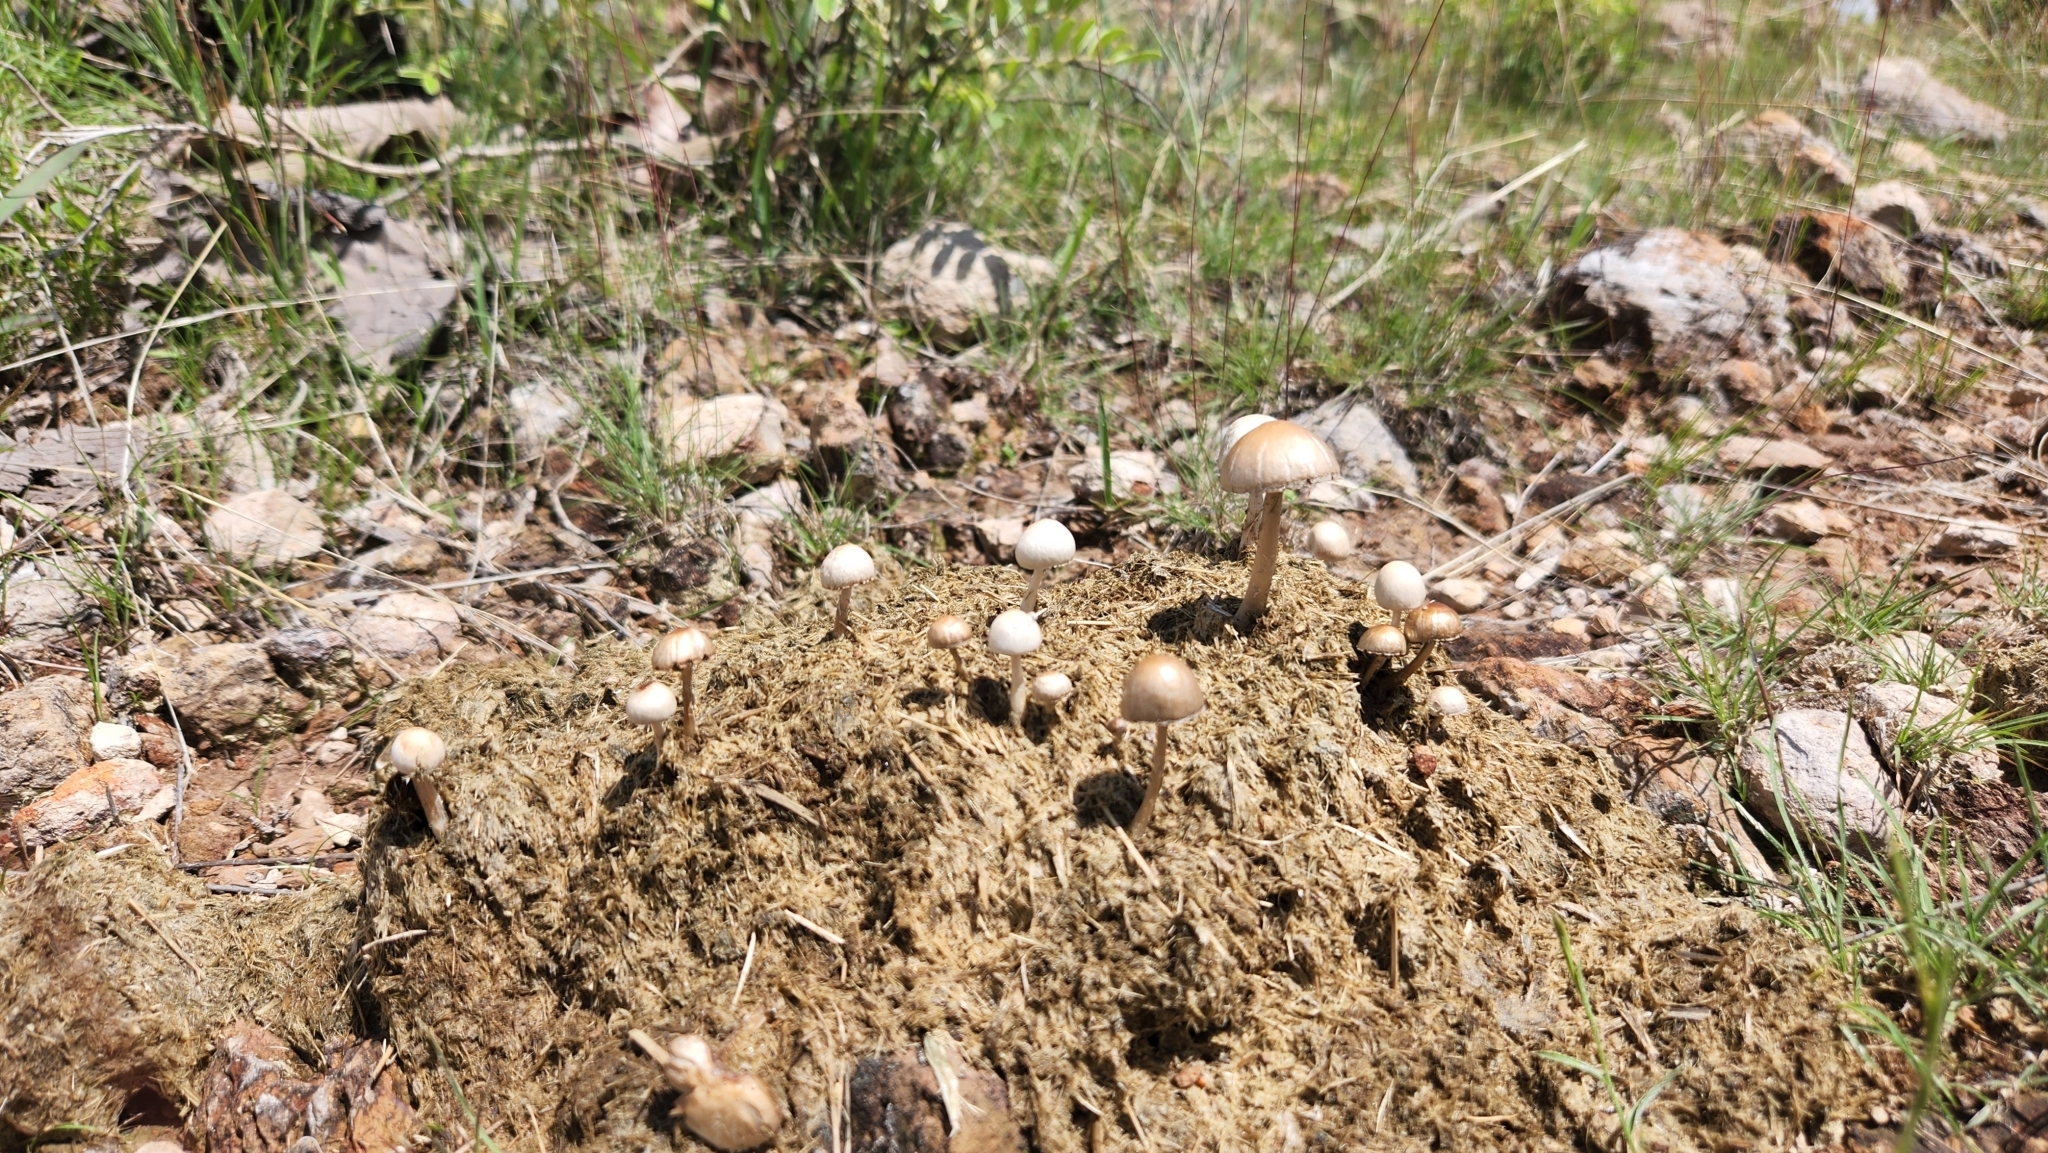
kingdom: Fungi
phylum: Basidiomycota
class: Agaricomycetes
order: Agaricales
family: Bolbitiaceae
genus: Panaeolus
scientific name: Panaeolus antillarum
